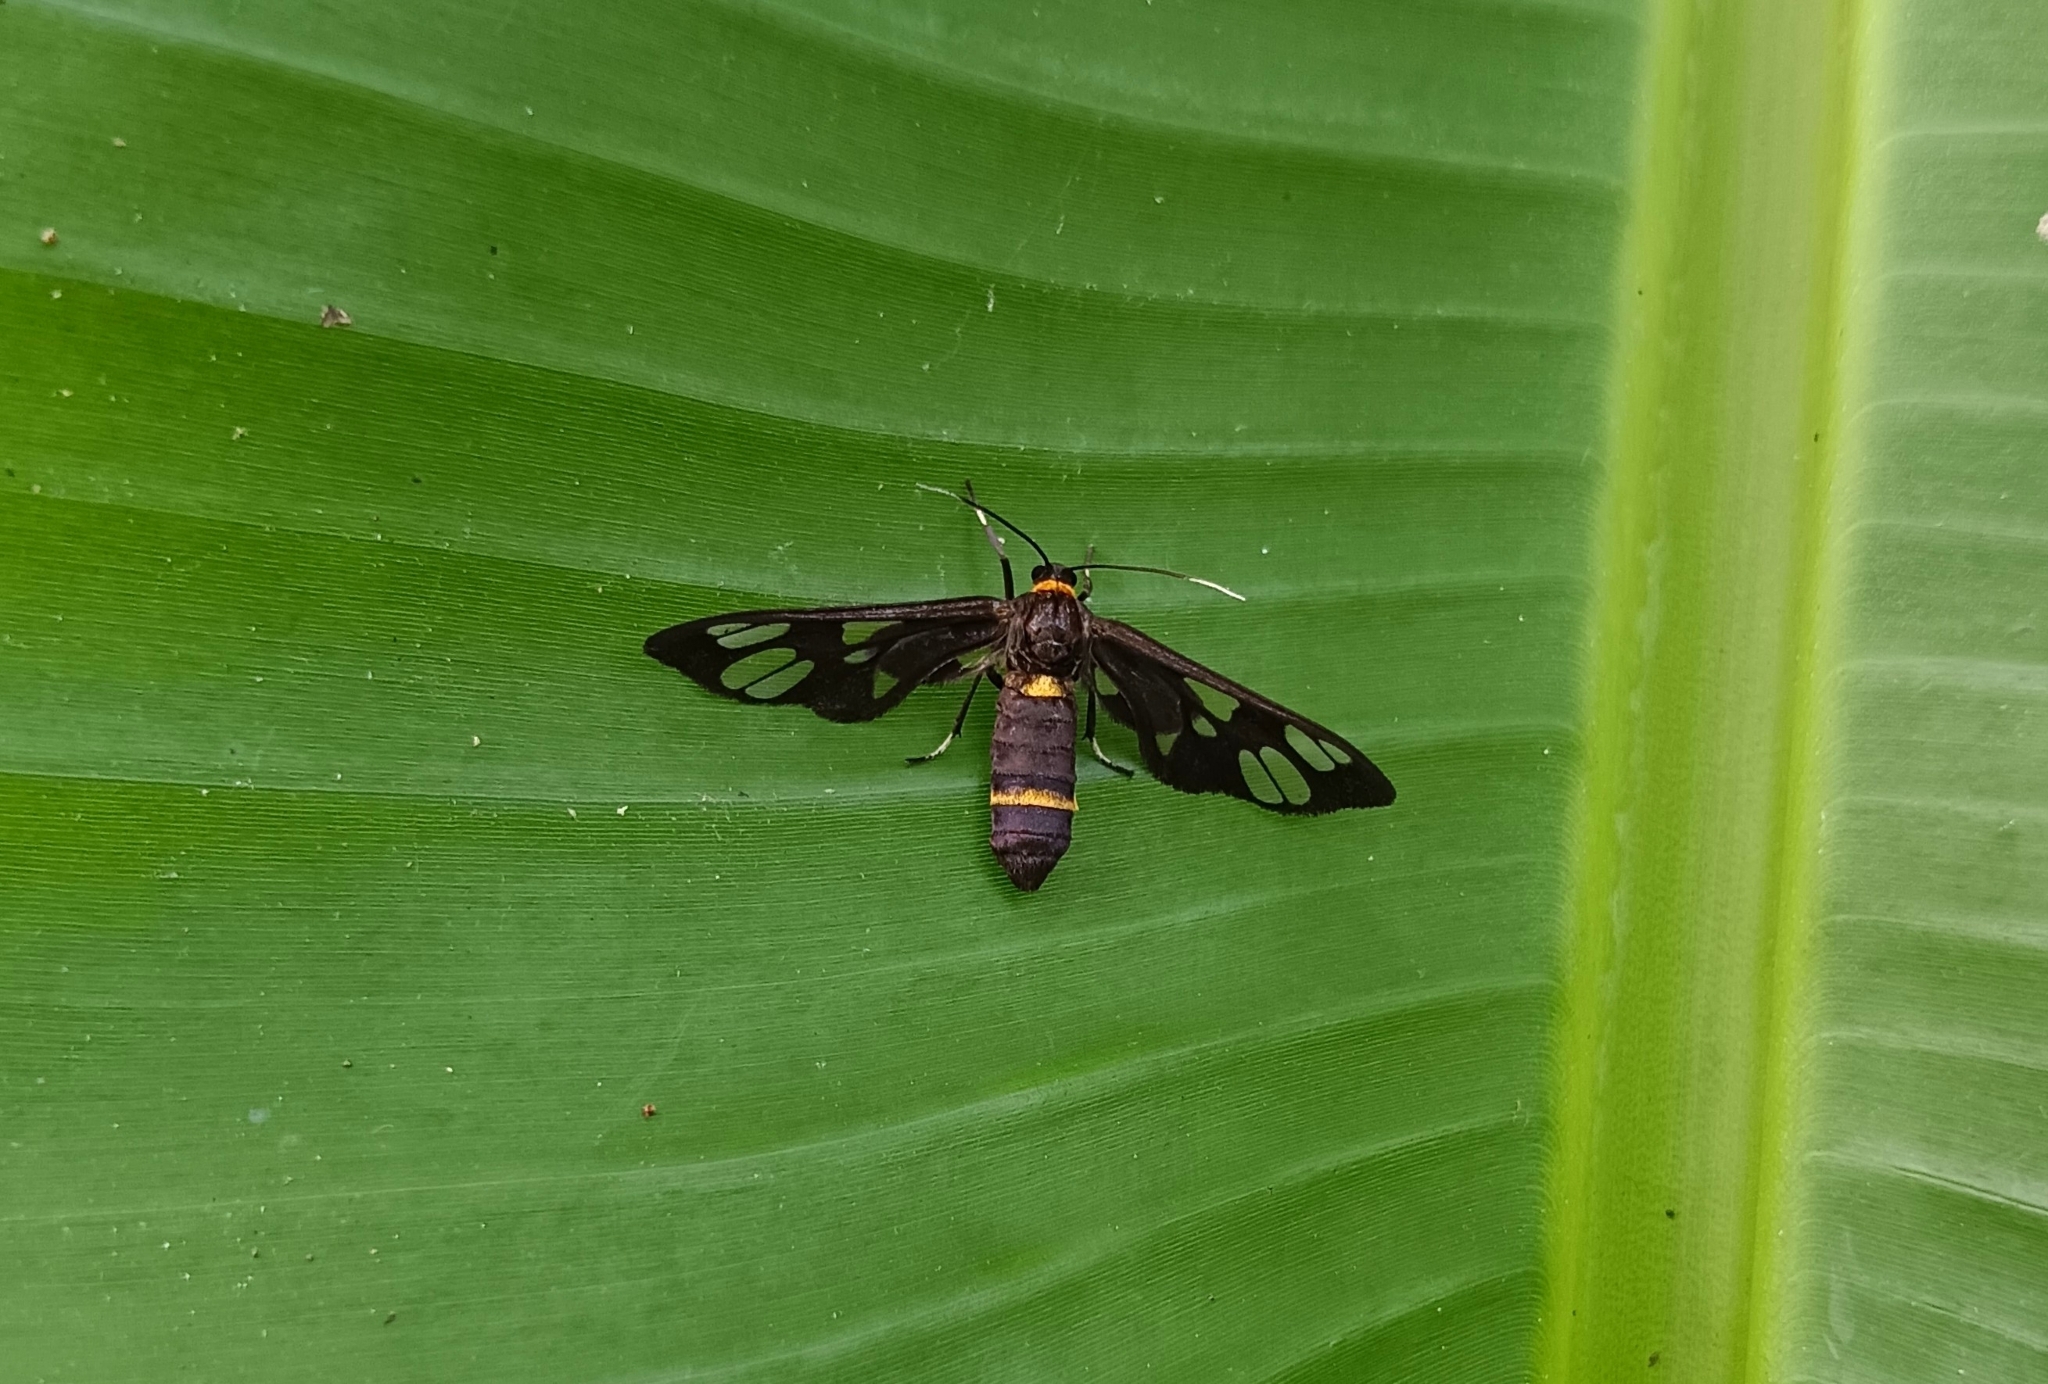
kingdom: Animalia
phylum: Arthropoda
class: Insecta
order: Lepidoptera
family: Erebidae
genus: Syntomoides
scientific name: Syntomoides imaon
